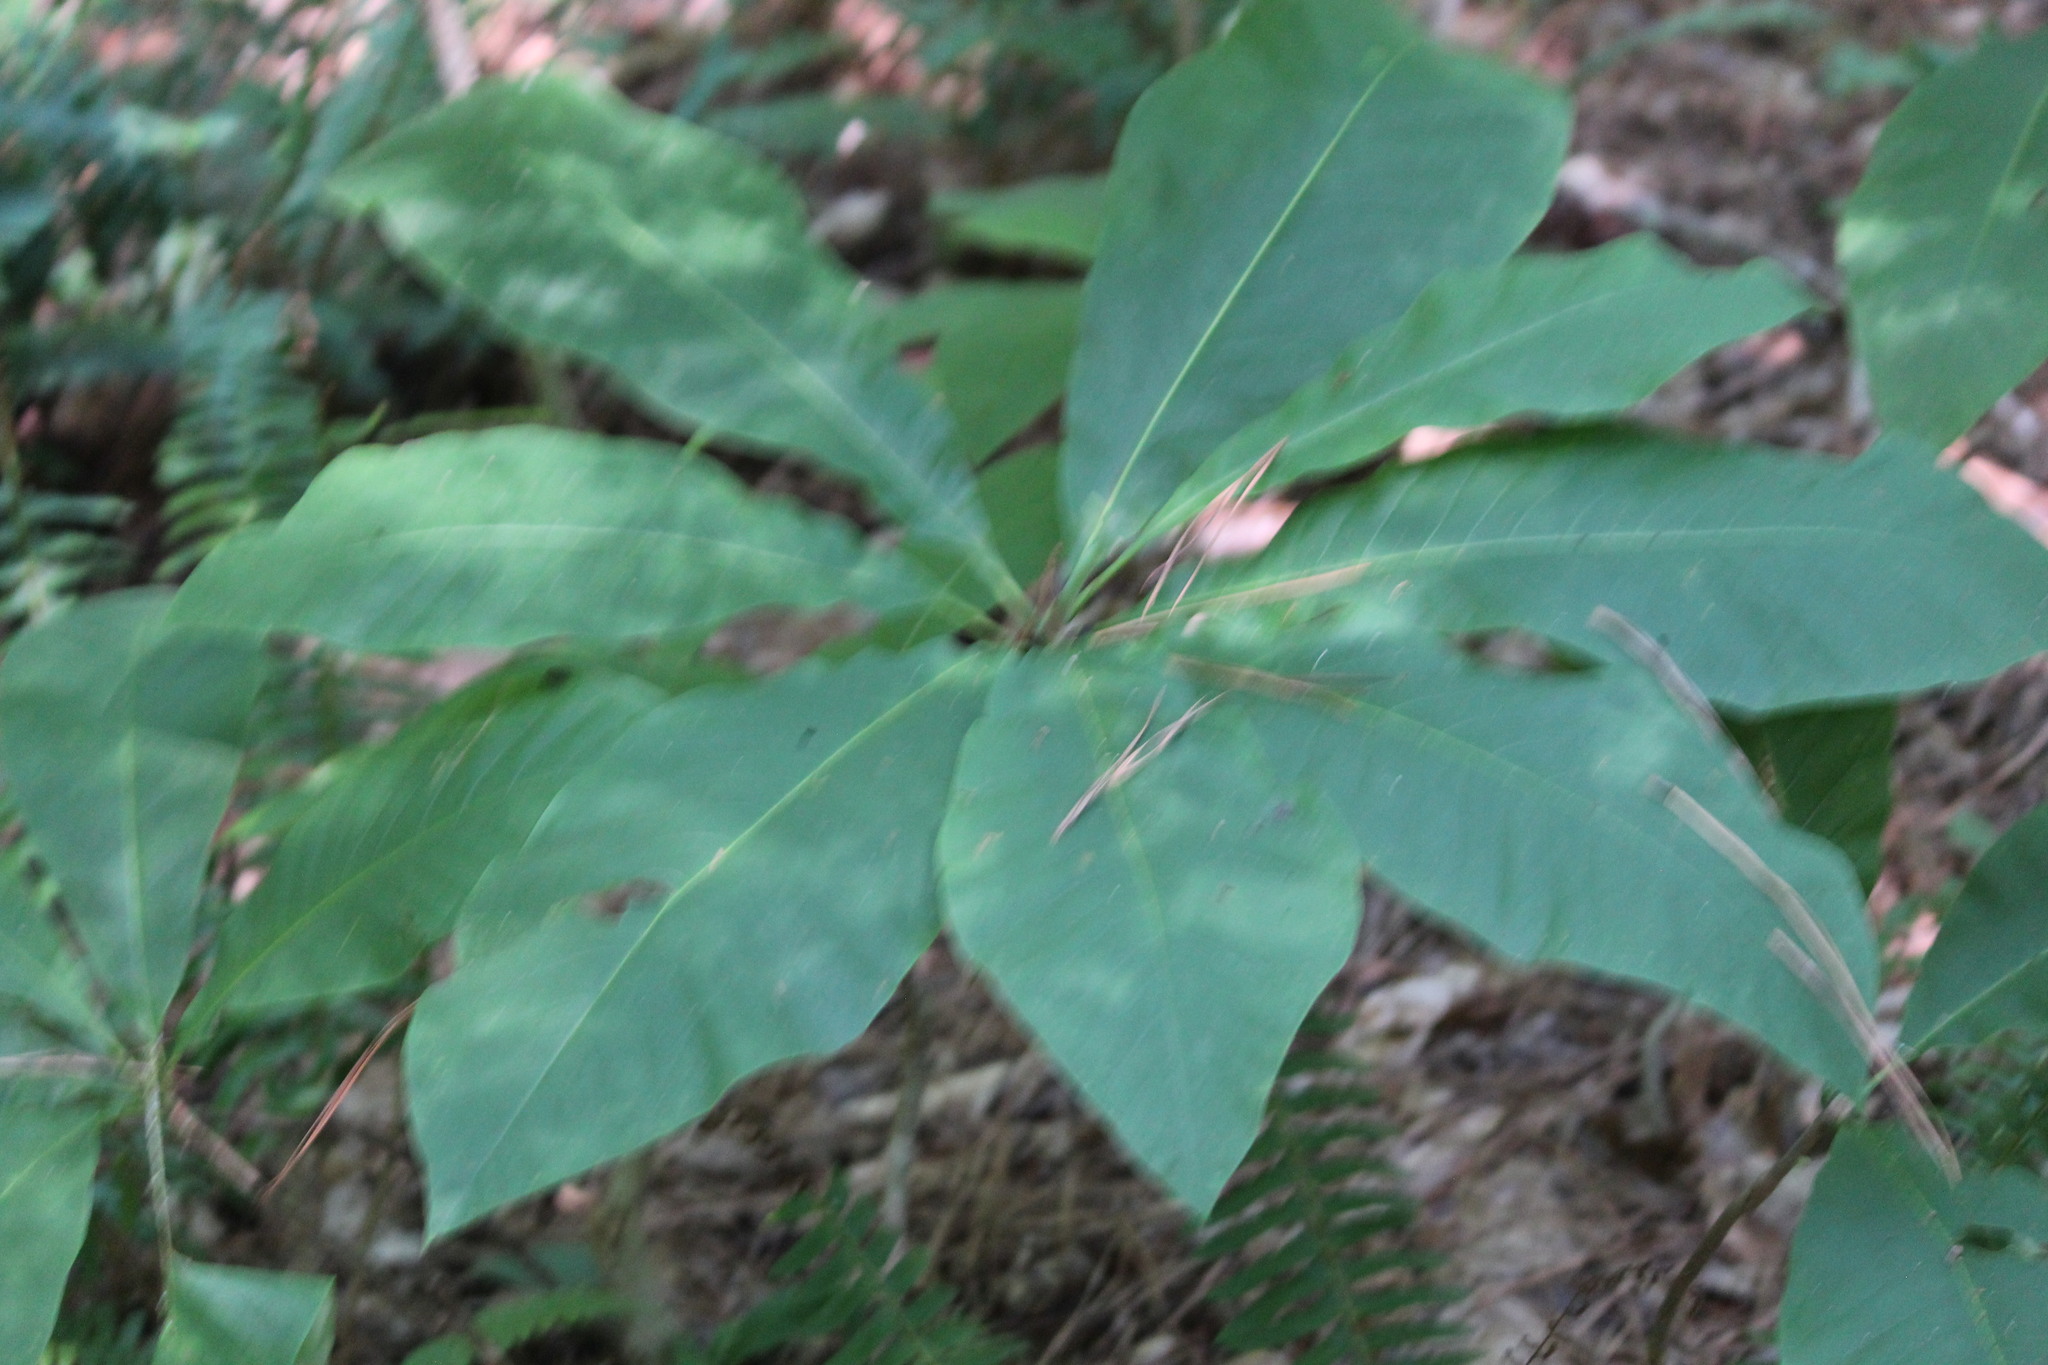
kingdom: Plantae
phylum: Tracheophyta
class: Magnoliopsida
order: Magnoliales
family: Magnoliaceae
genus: Magnolia
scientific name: Magnolia tripetala
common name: Umbrella magnolia
